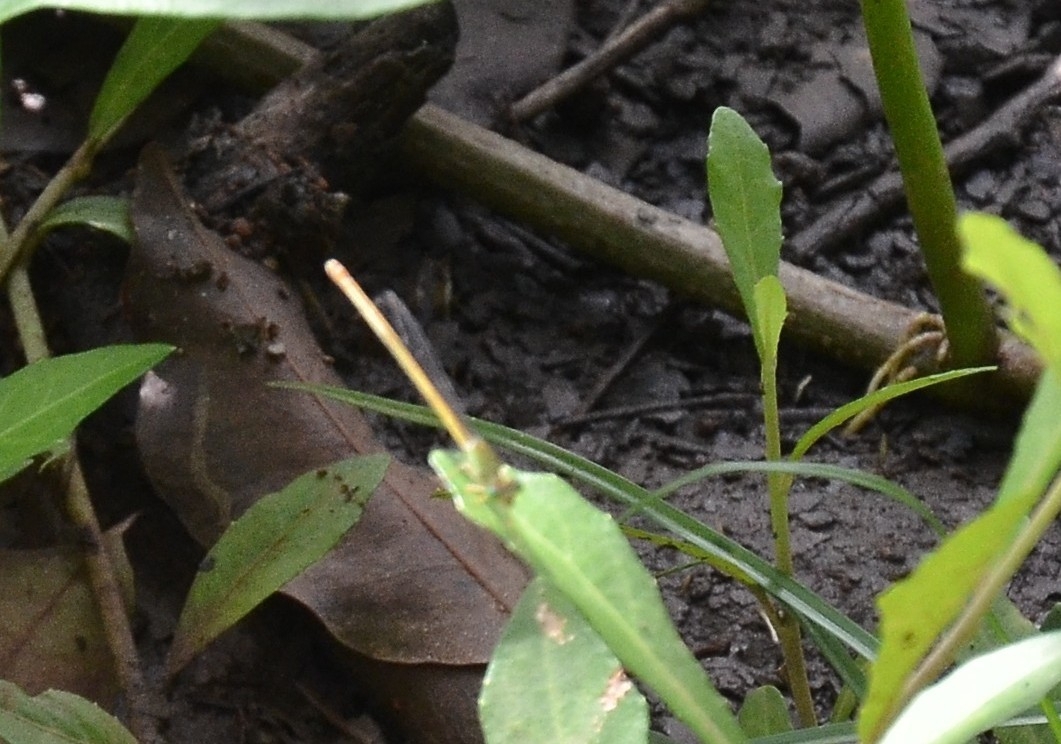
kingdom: Animalia
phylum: Arthropoda
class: Insecta
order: Odonata
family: Coenagrionidae
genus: Ceriagrion
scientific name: Ceriagrion coromandelianum
